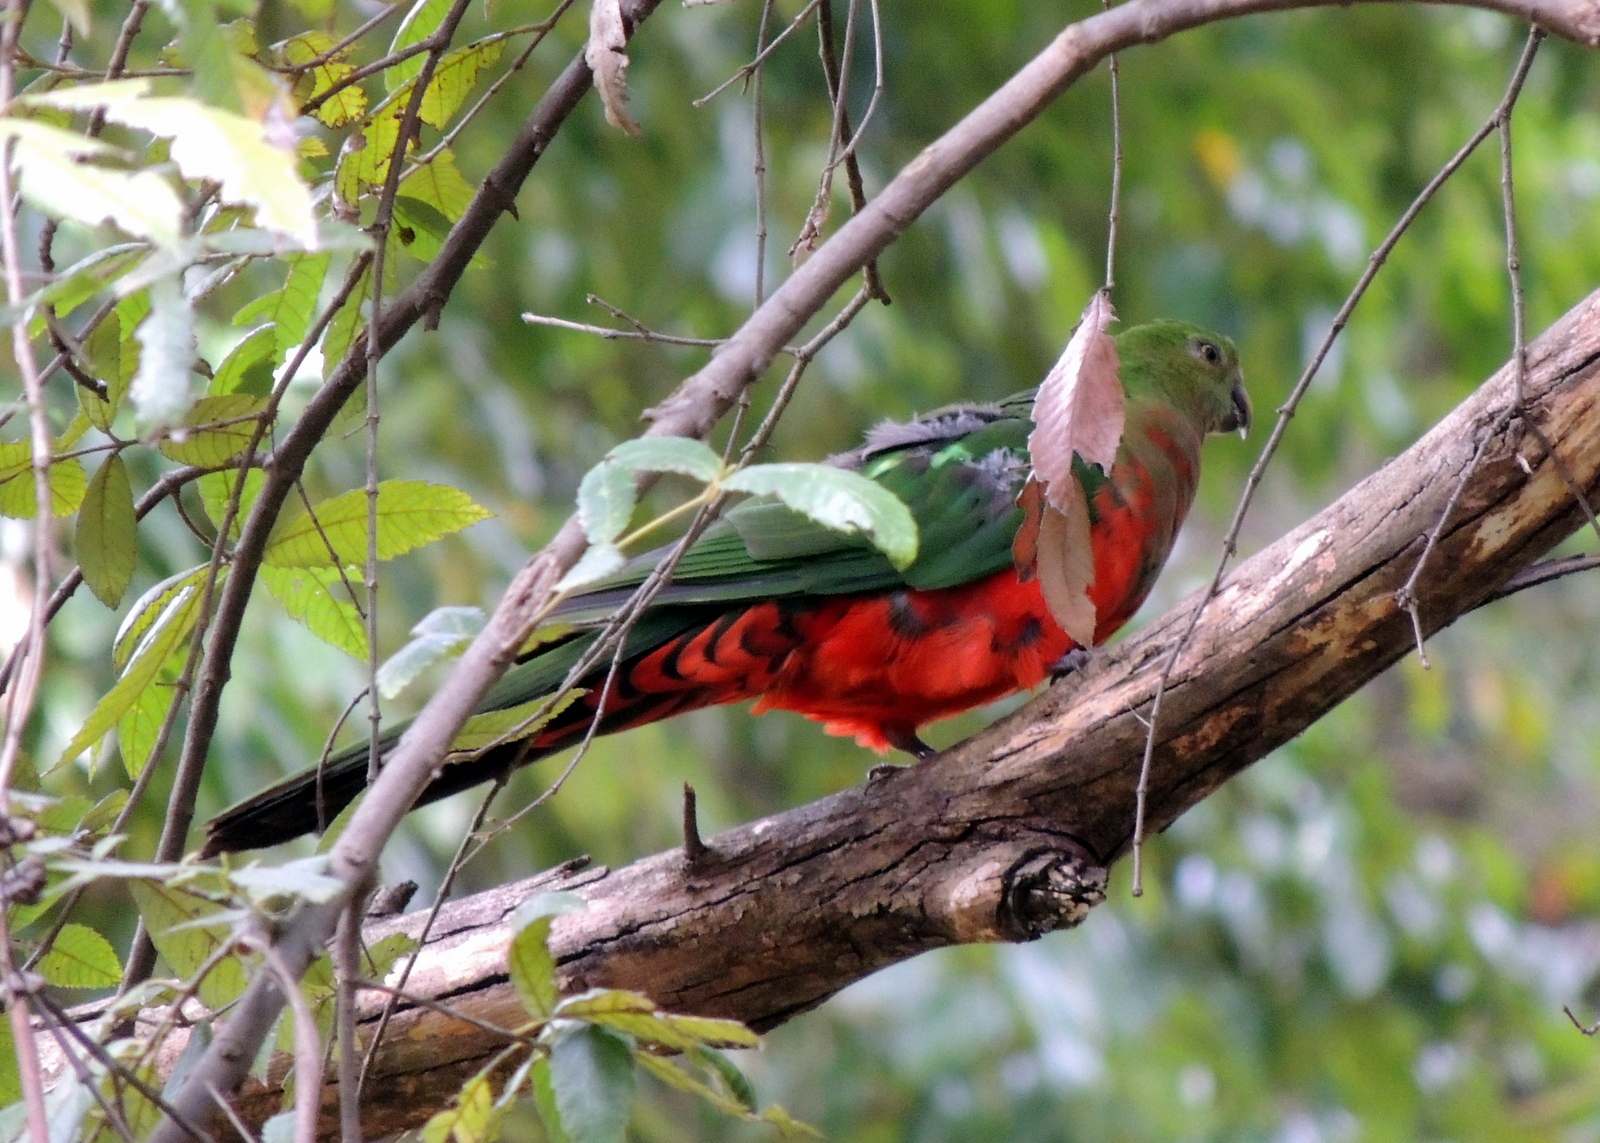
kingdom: Animalia
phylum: Chordata
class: Aves
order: Psittaciformes
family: Psittacidae
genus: Alisterus
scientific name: Alisterus scapularis
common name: Australian king parrot
